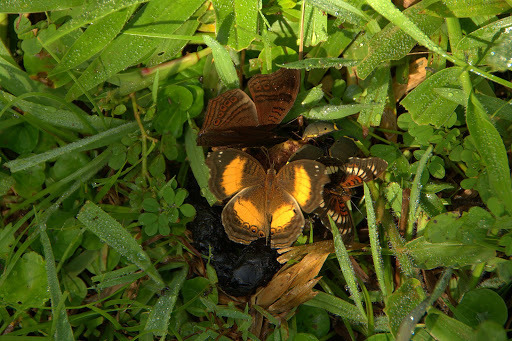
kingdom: Animalia
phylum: Arthropoda
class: Insecta
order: Lepidoptera
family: Nymphalidae
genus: Junonia
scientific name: Junonia stygia
